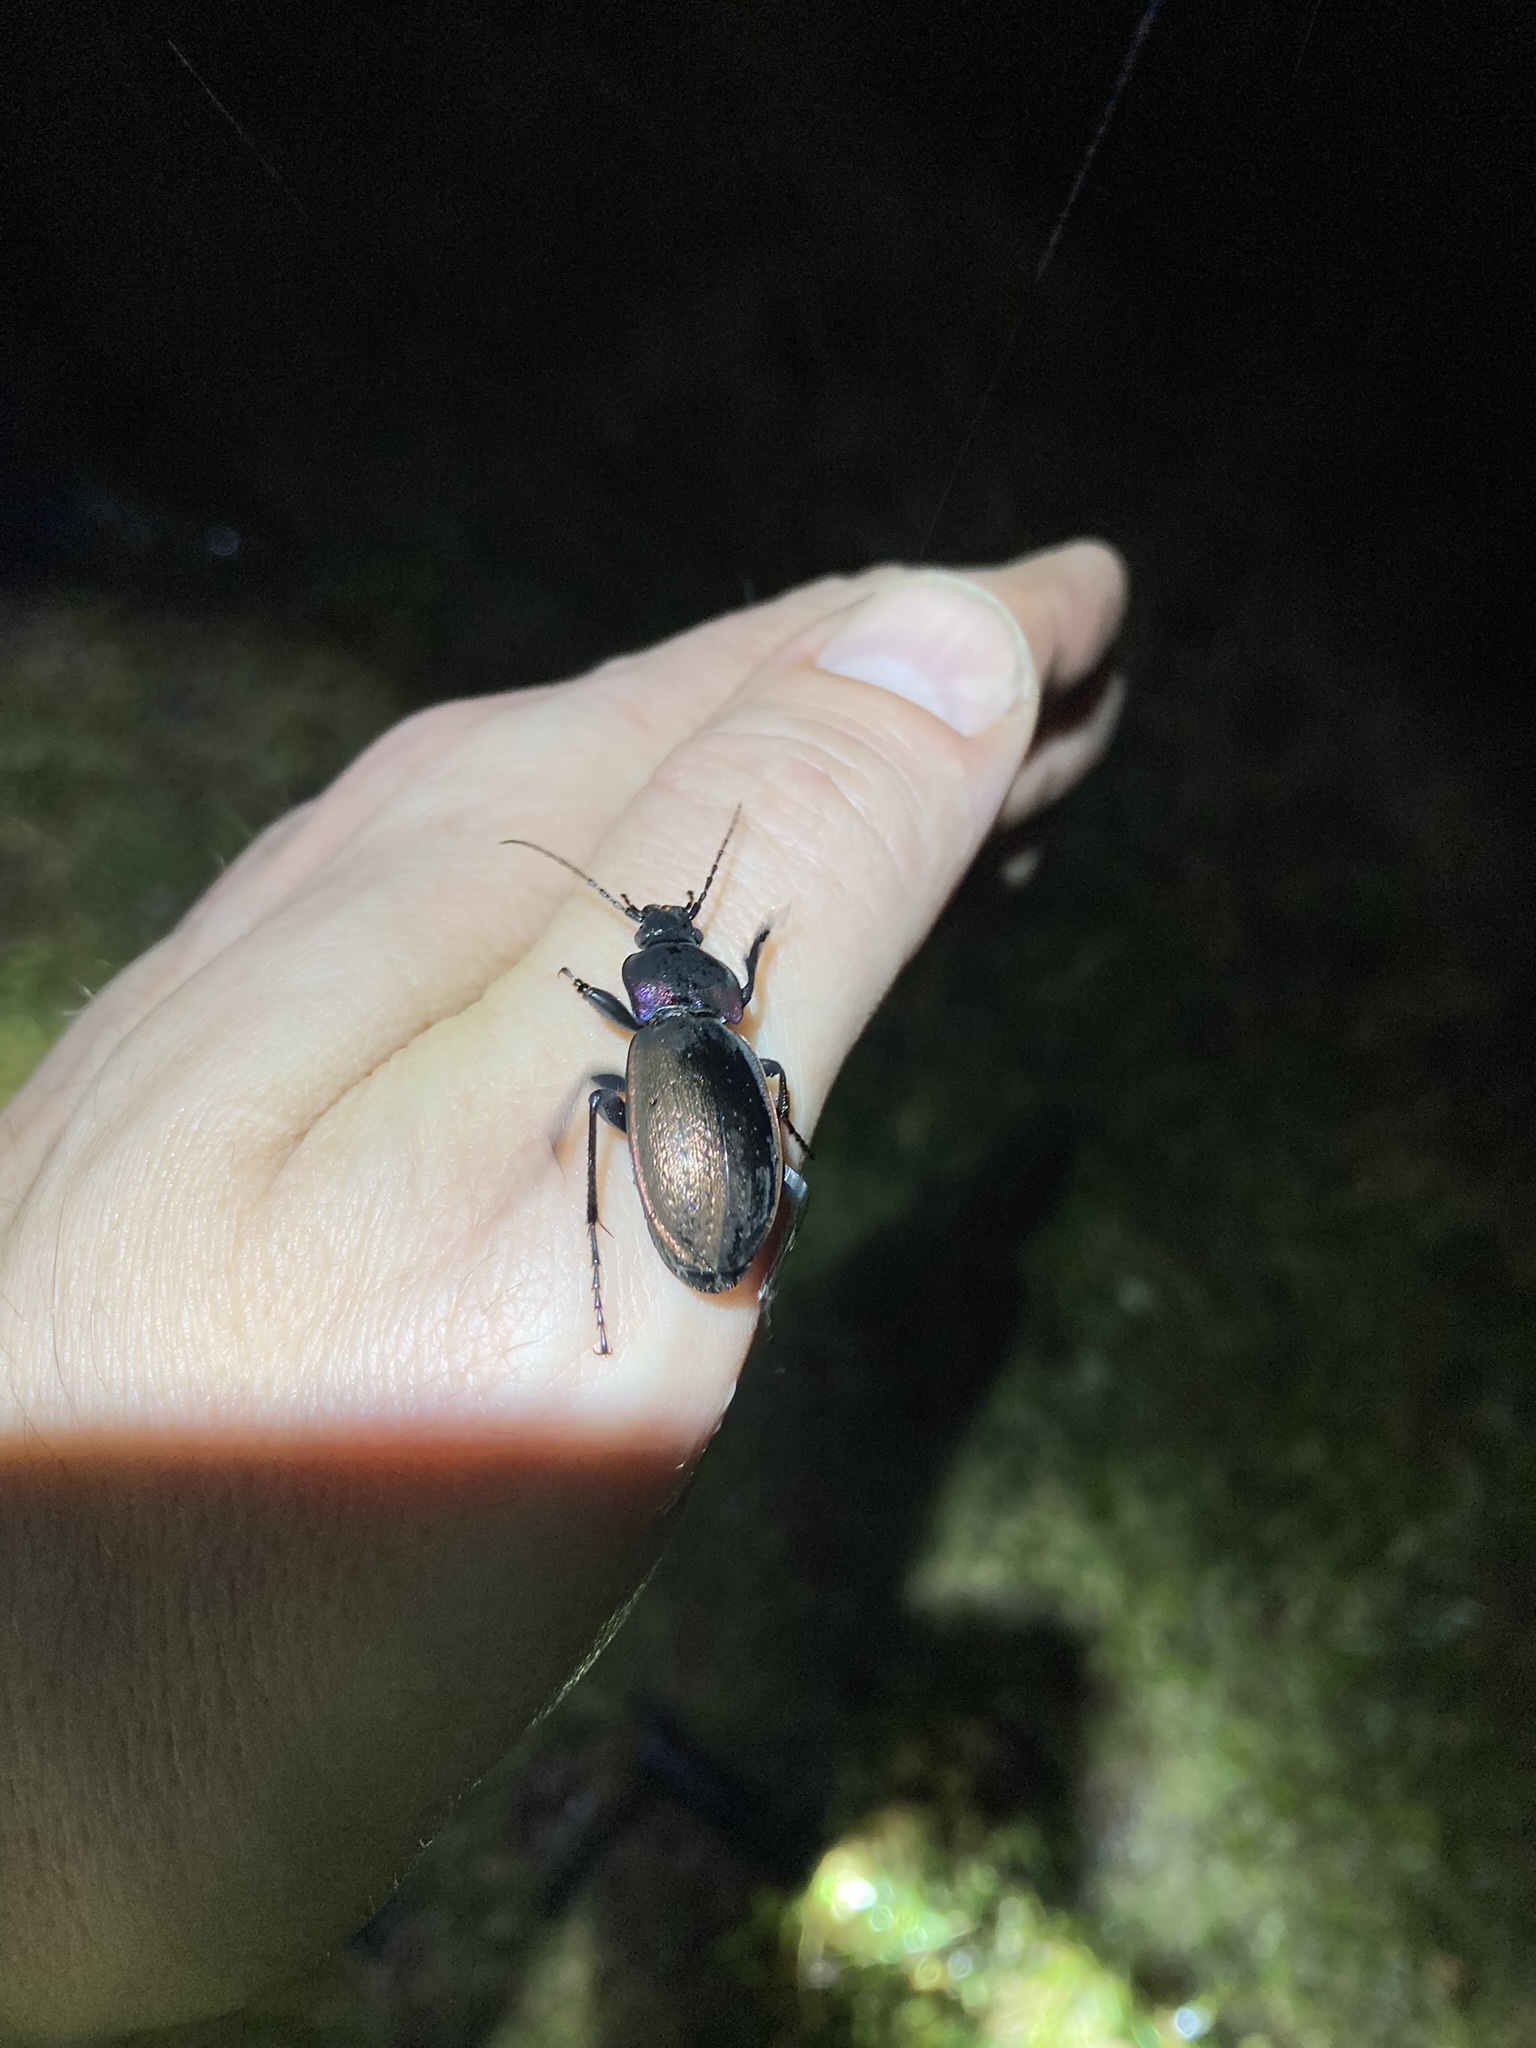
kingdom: Animalia
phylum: Arthropoda
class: Insecta
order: Coleoptera
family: Carabidae
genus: Carabus
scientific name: Carabus nemoralis
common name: European ground beetle
